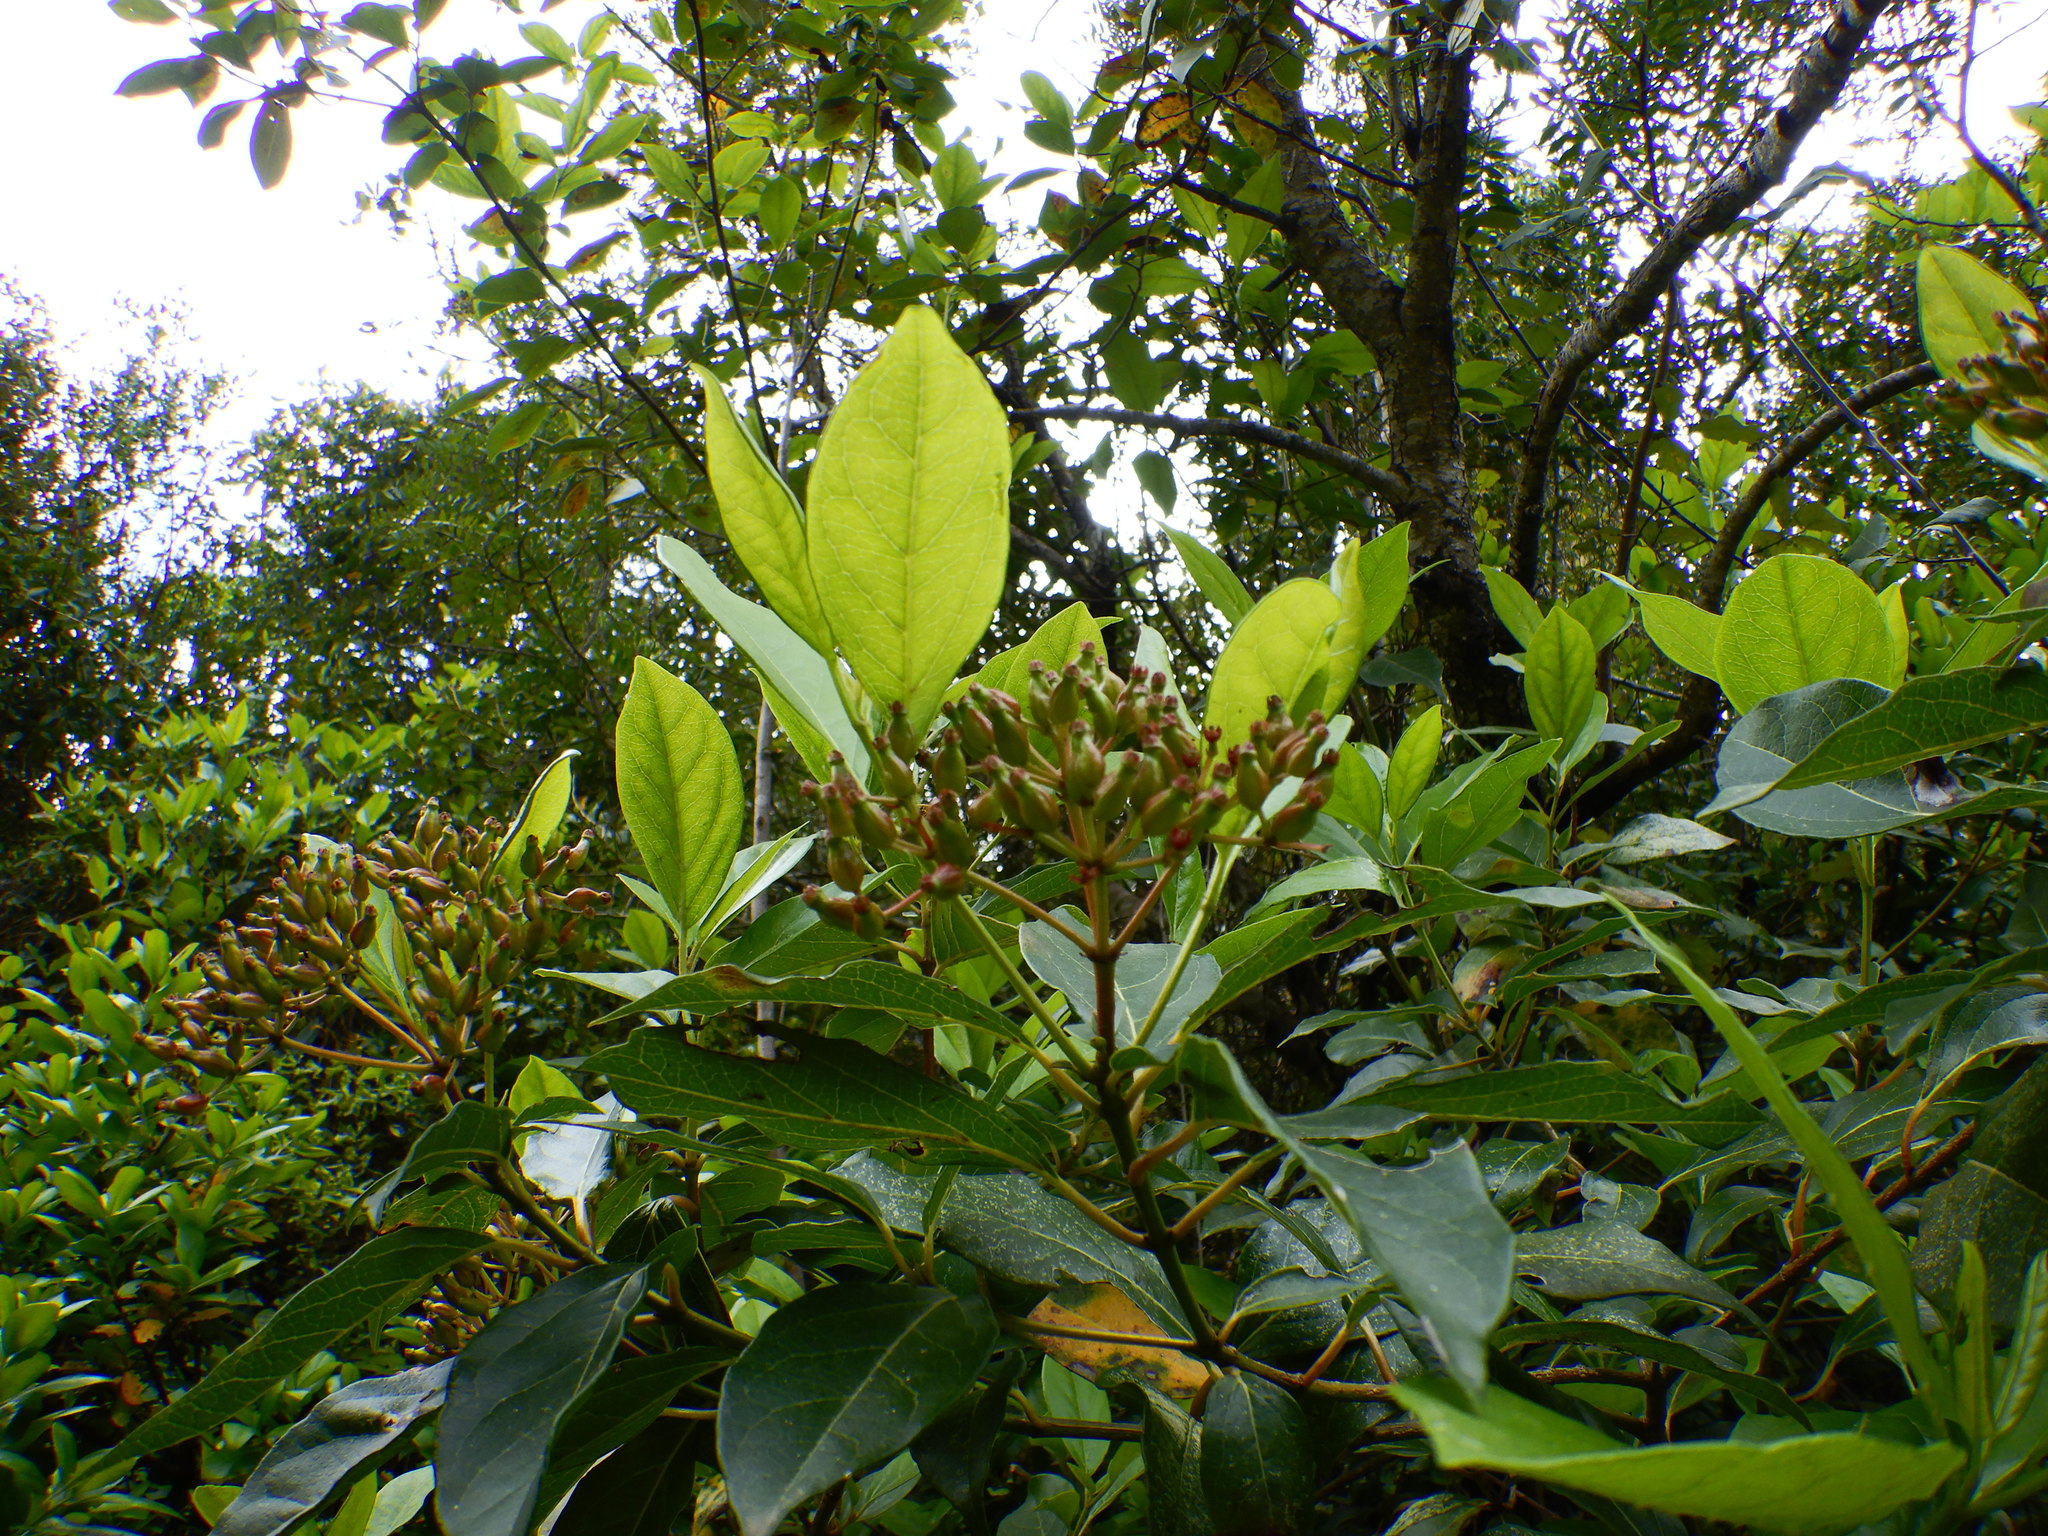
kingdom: Plantae
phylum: Tracheophyta
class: Magnoliopsida
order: Dipsacales
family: Viburnaceae
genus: Viburnum
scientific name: Viburnum tinus
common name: Laurustinus
